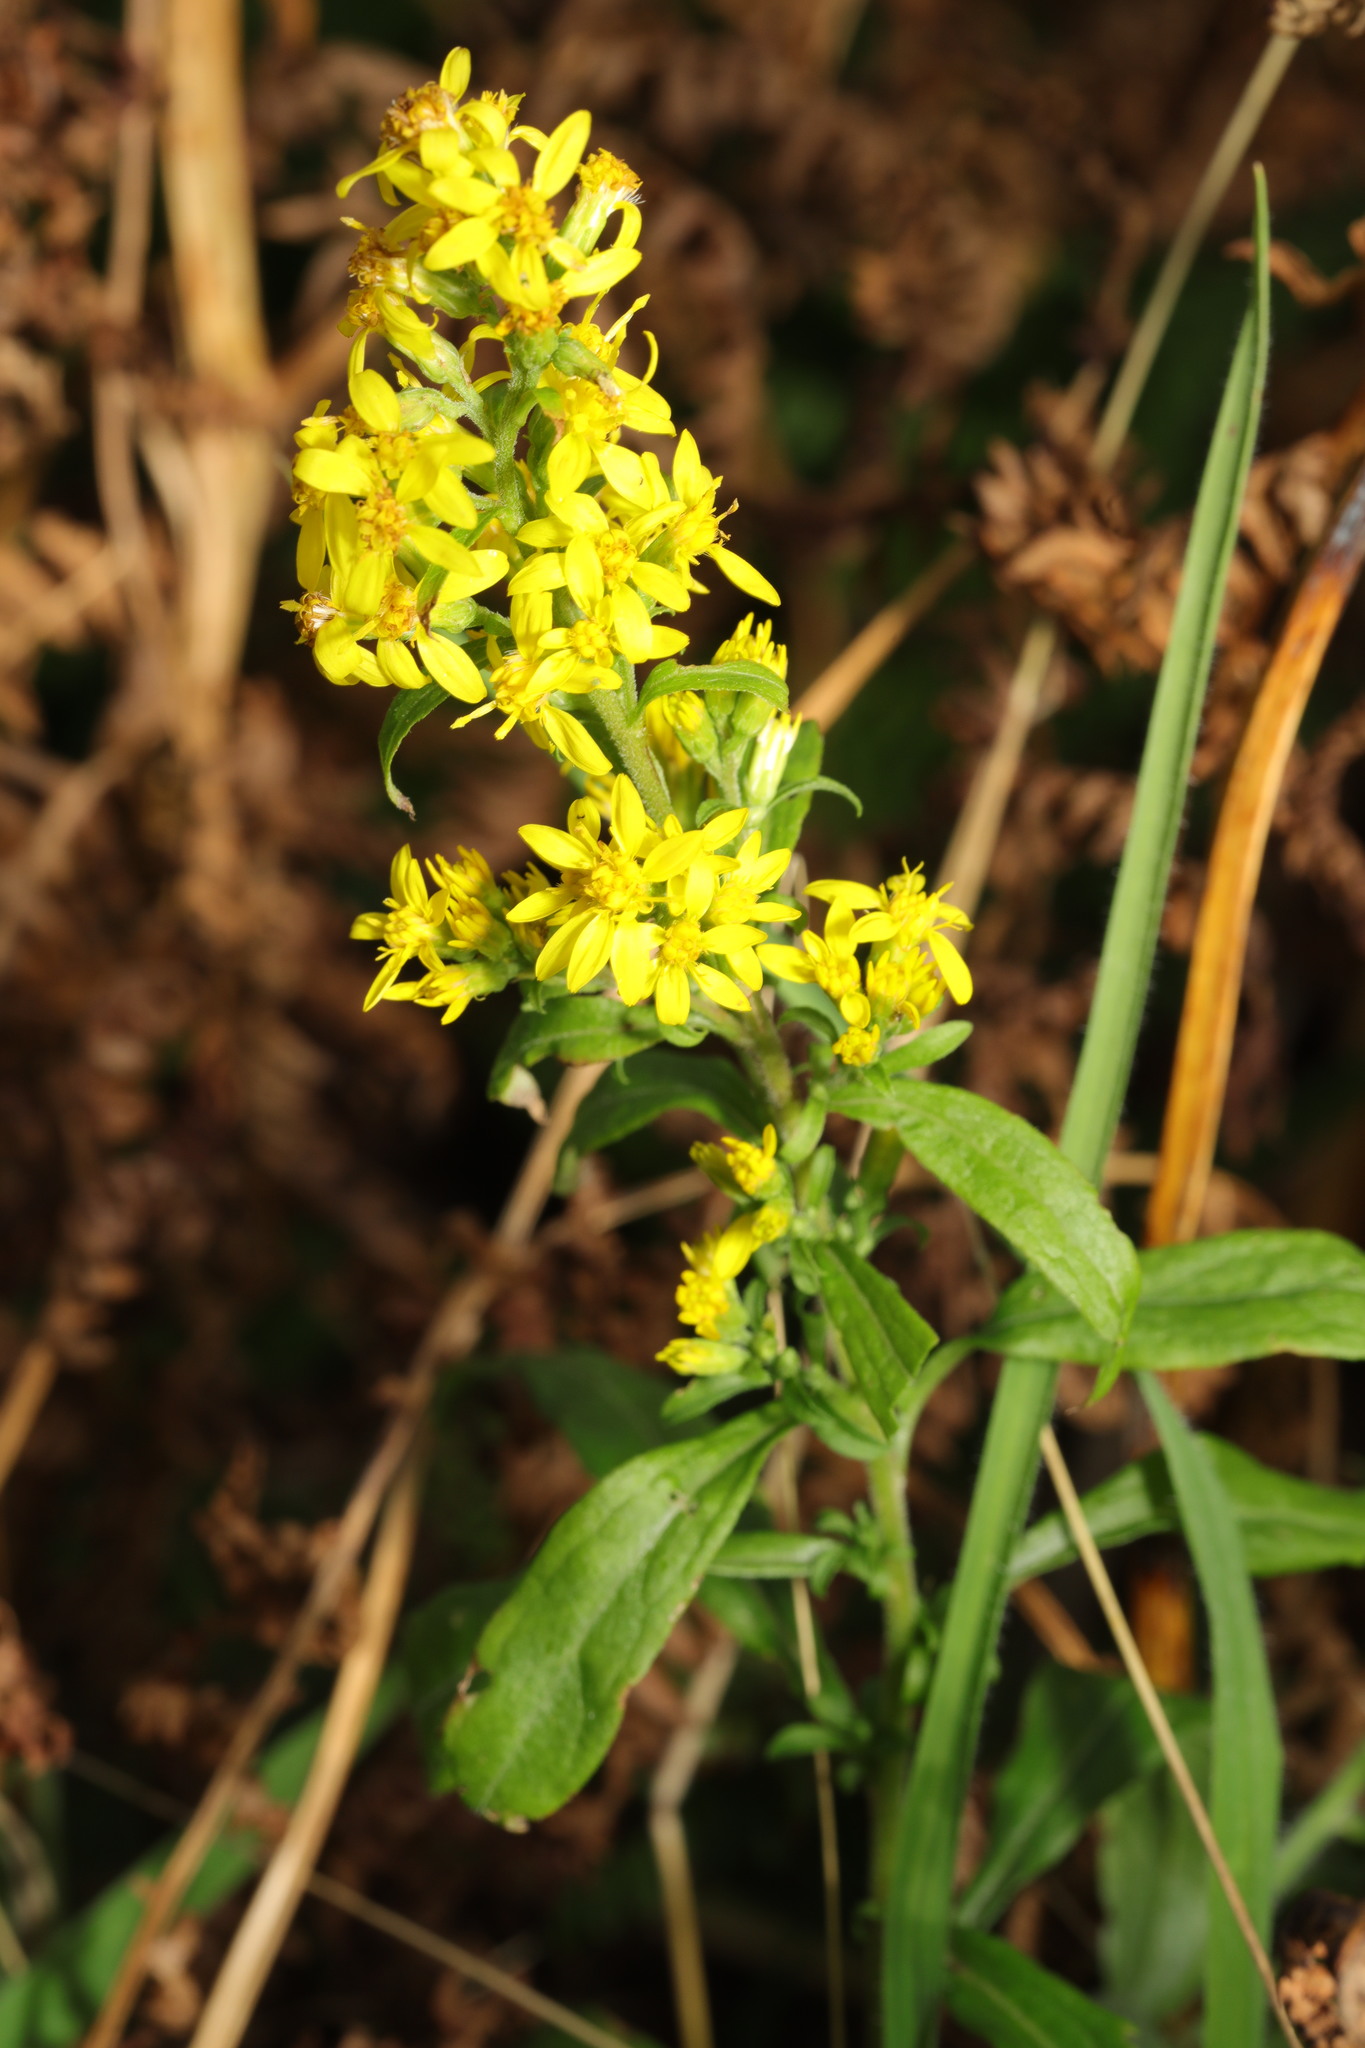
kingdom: Plantae
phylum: Tracheophyta
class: Magnoliopsida
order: Asterales
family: Asteraceae
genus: Solidago
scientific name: Solidago virgaurea
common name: Goldenrod
